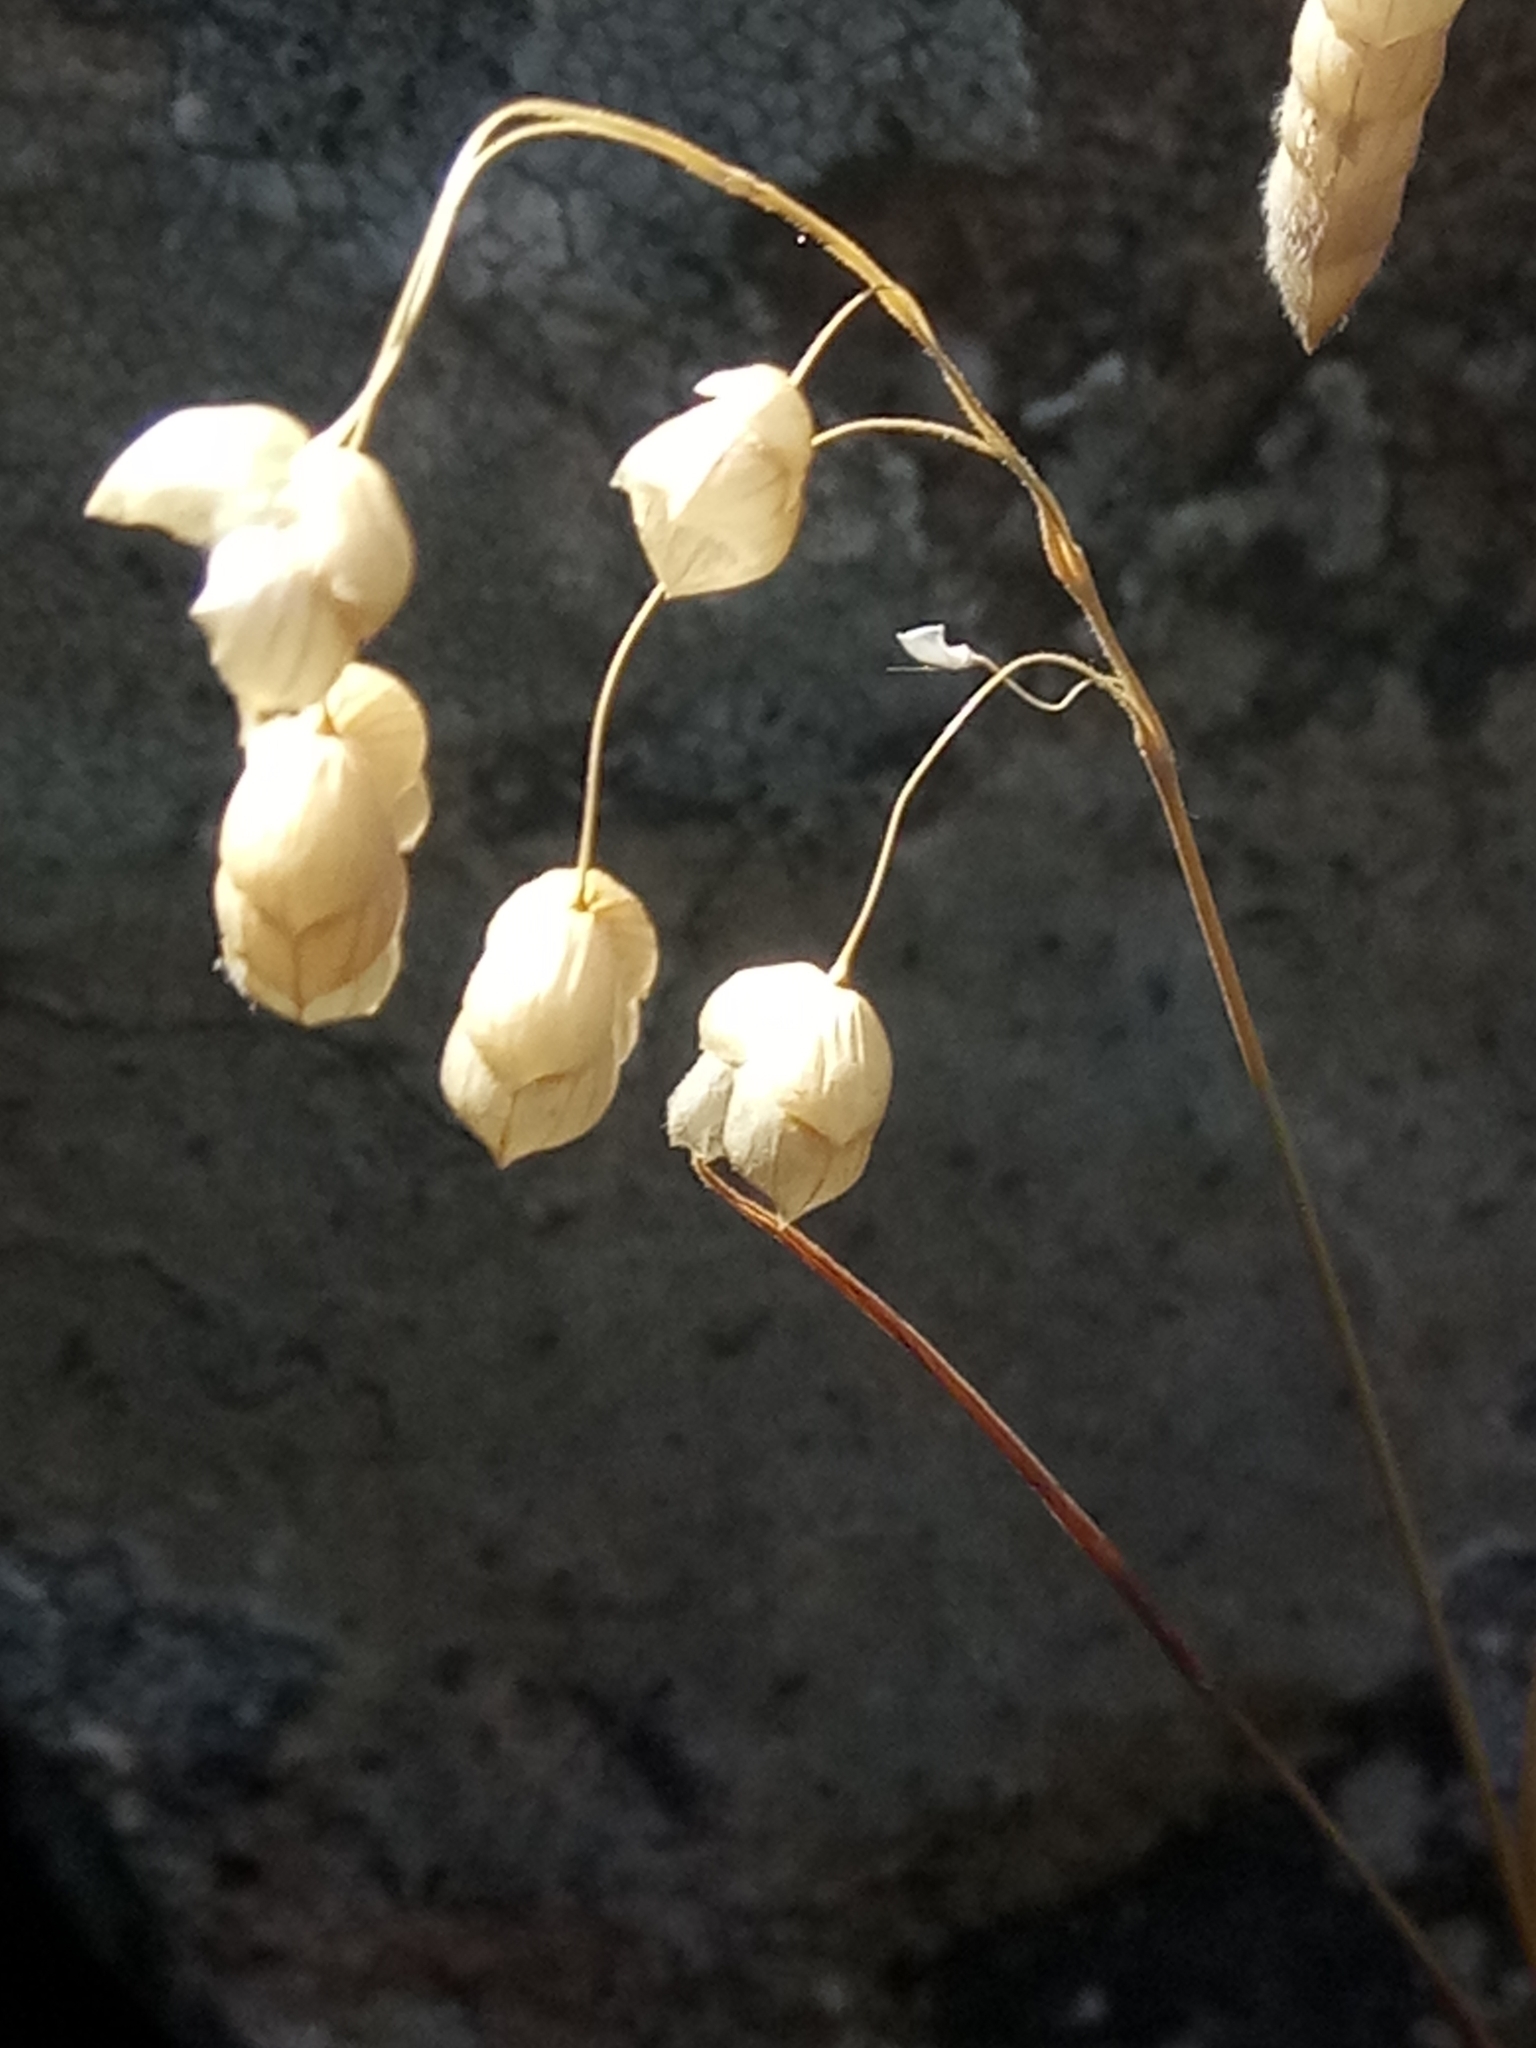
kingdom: Plantae
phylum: Tracheophyta
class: Liliopsida
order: Poales
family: Poaceae
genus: Briza
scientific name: Briza maxima
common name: Big quakinggrass
